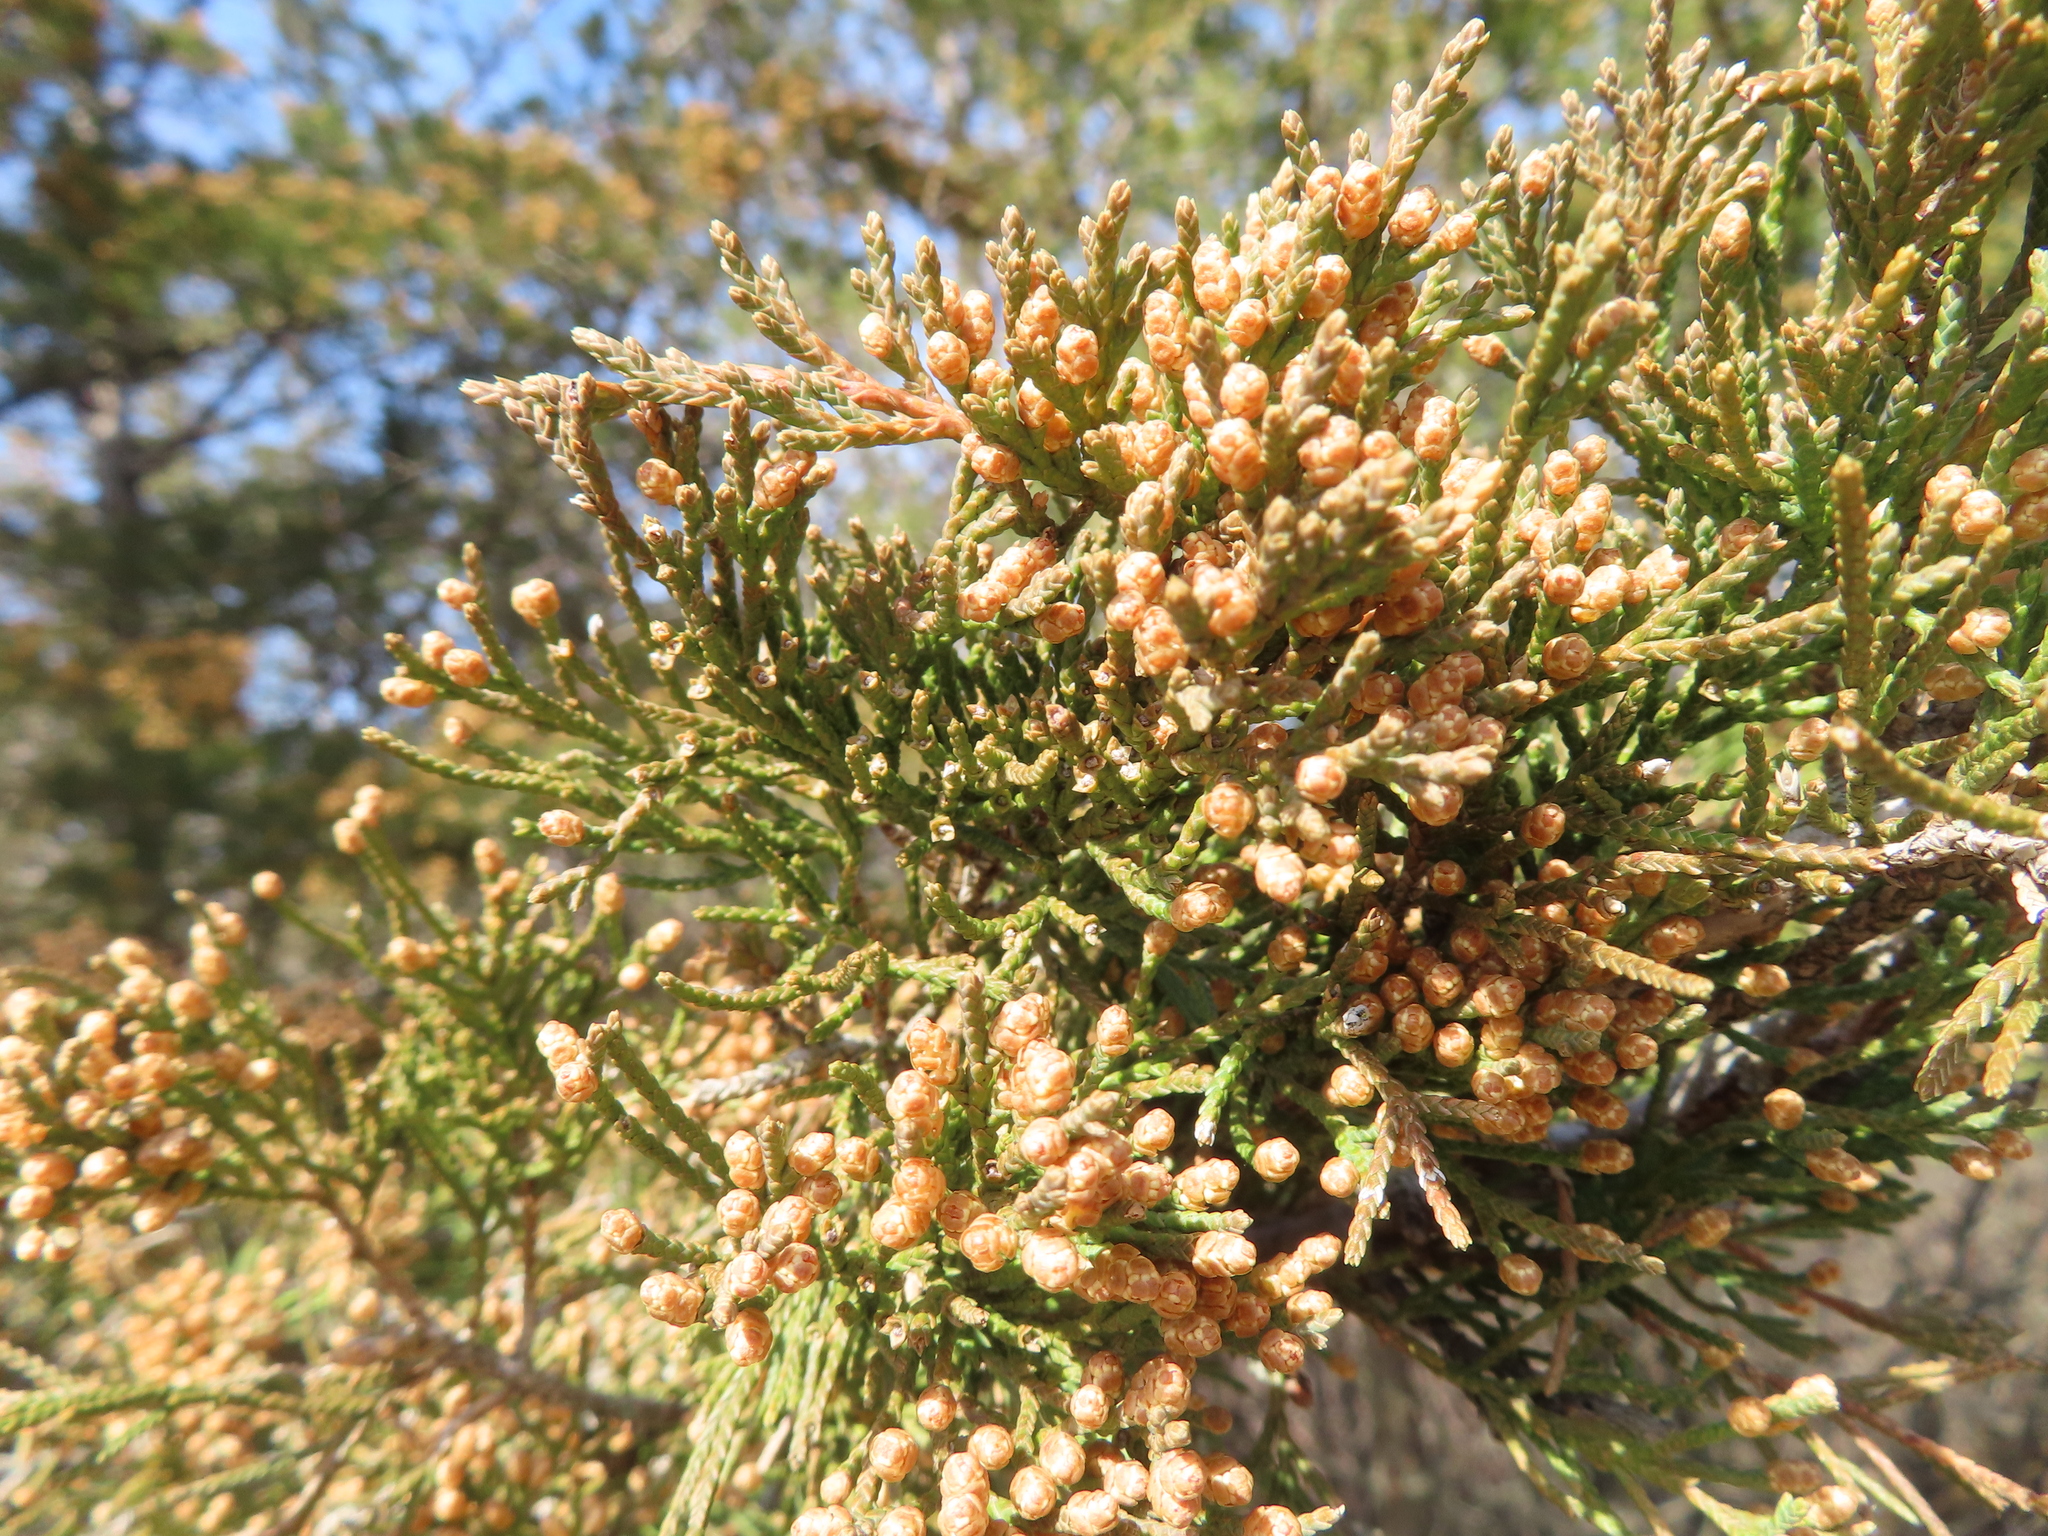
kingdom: Plantae
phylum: Tracheophyta
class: Pinopsida
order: Pinales
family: Cupressaceae
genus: Juniperus
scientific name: Juniperus virginiana
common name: Red juniper
